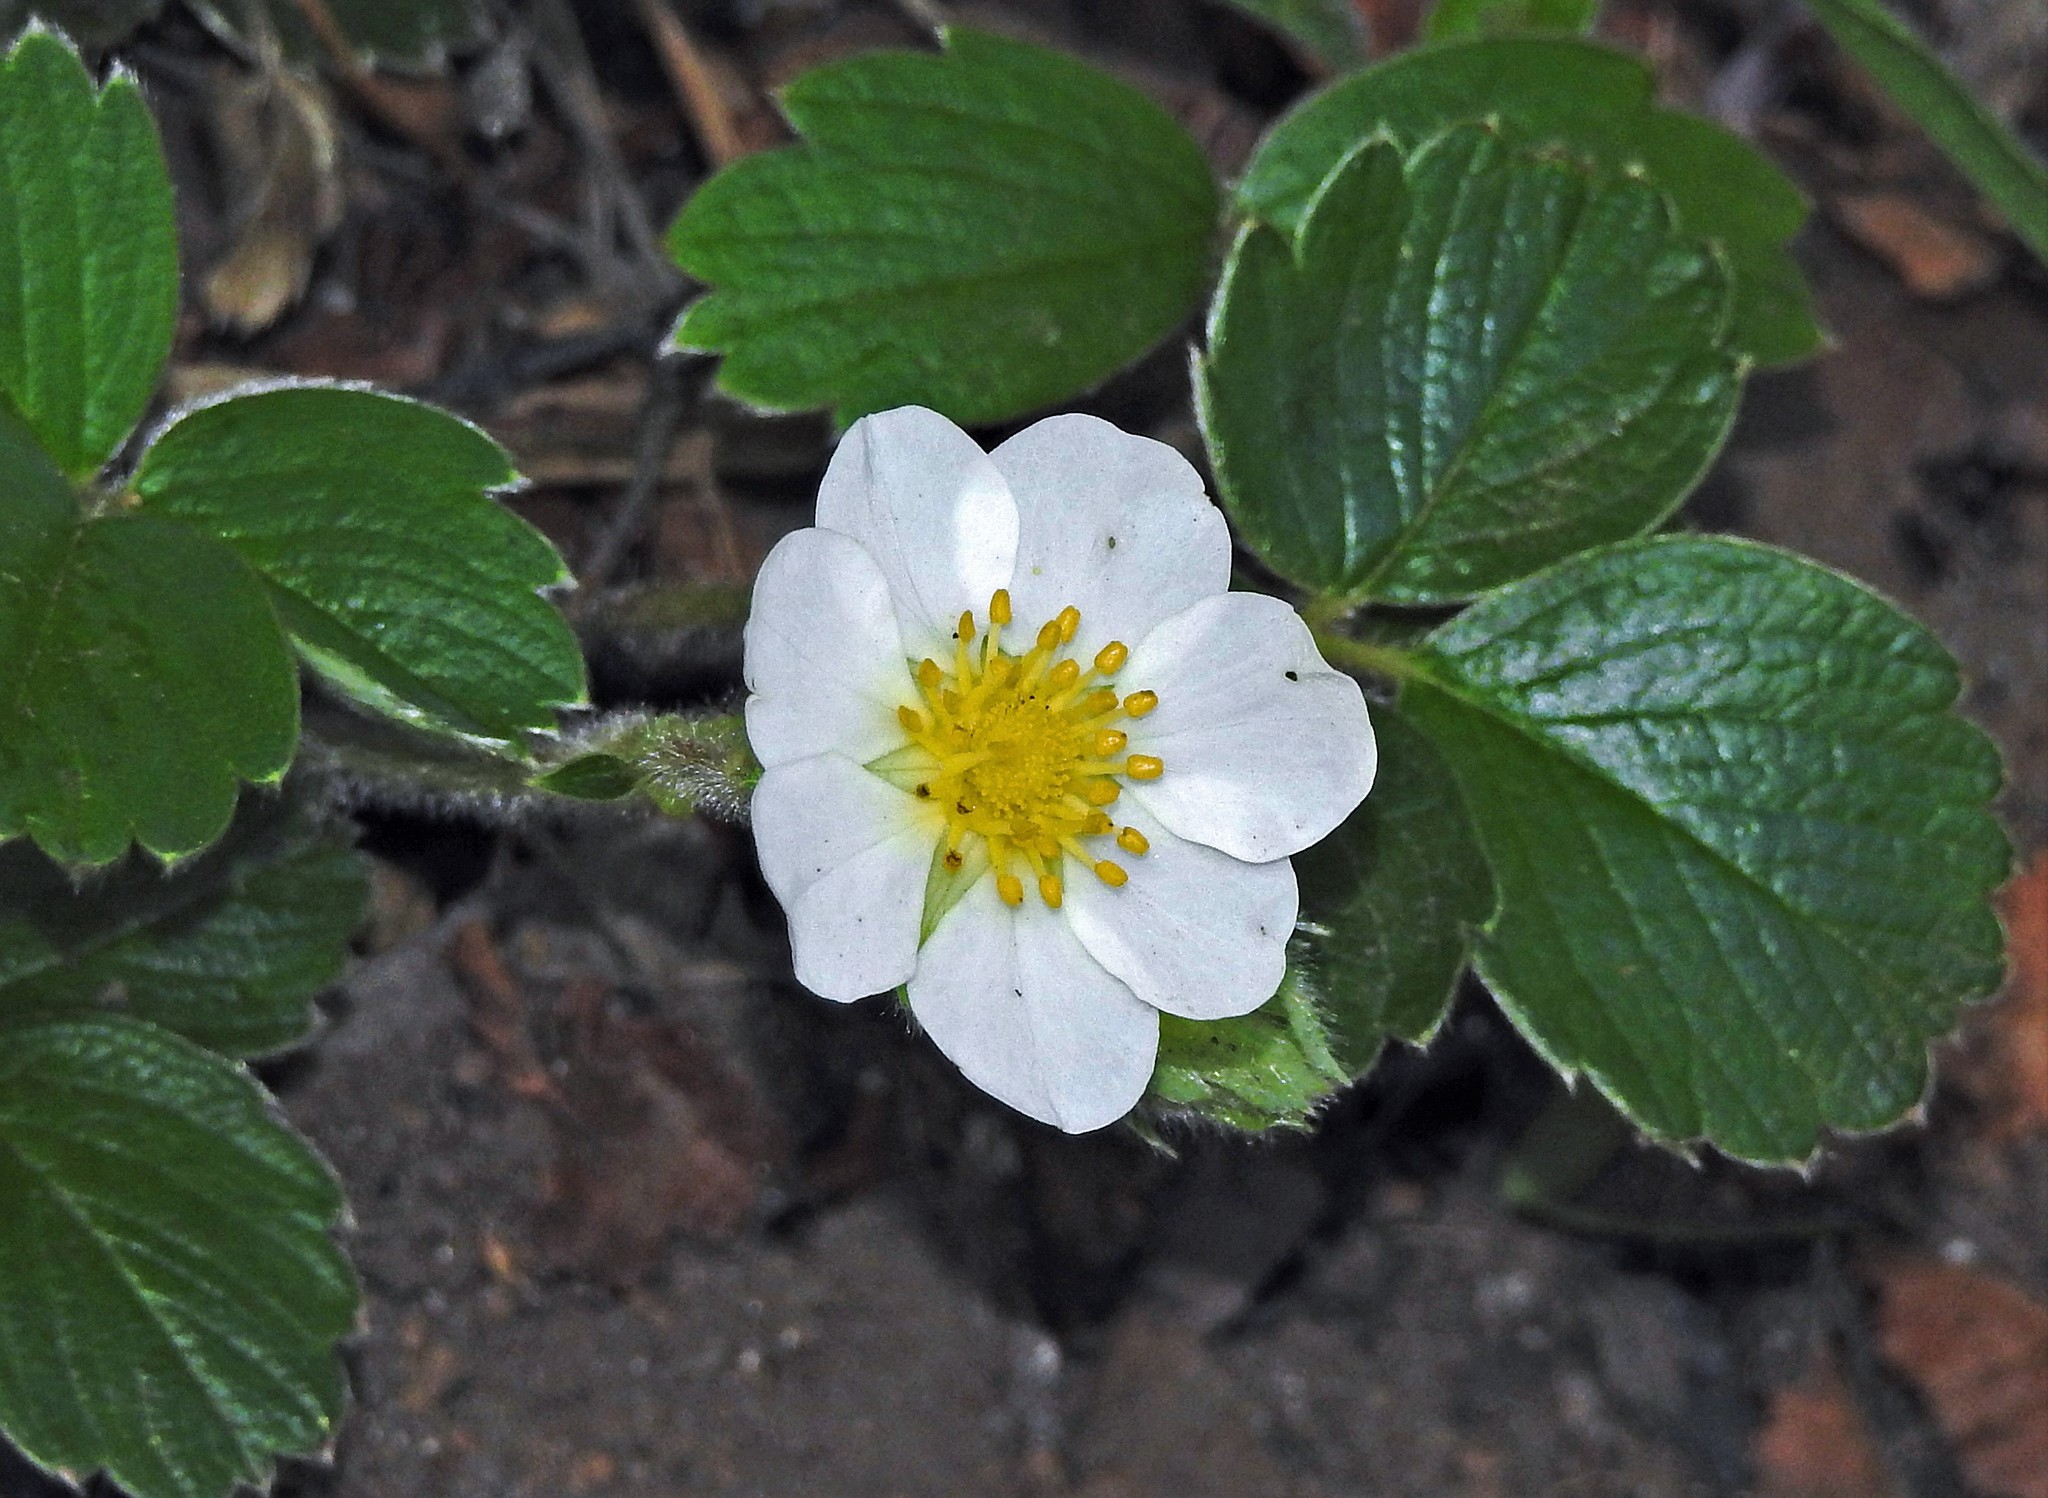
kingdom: Plantae
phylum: Tracheophyta
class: Magnoliopsida
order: Rosales
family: Rosaceae
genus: Fragaria
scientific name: Fragaria chiloensis
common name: Beach strawberry
